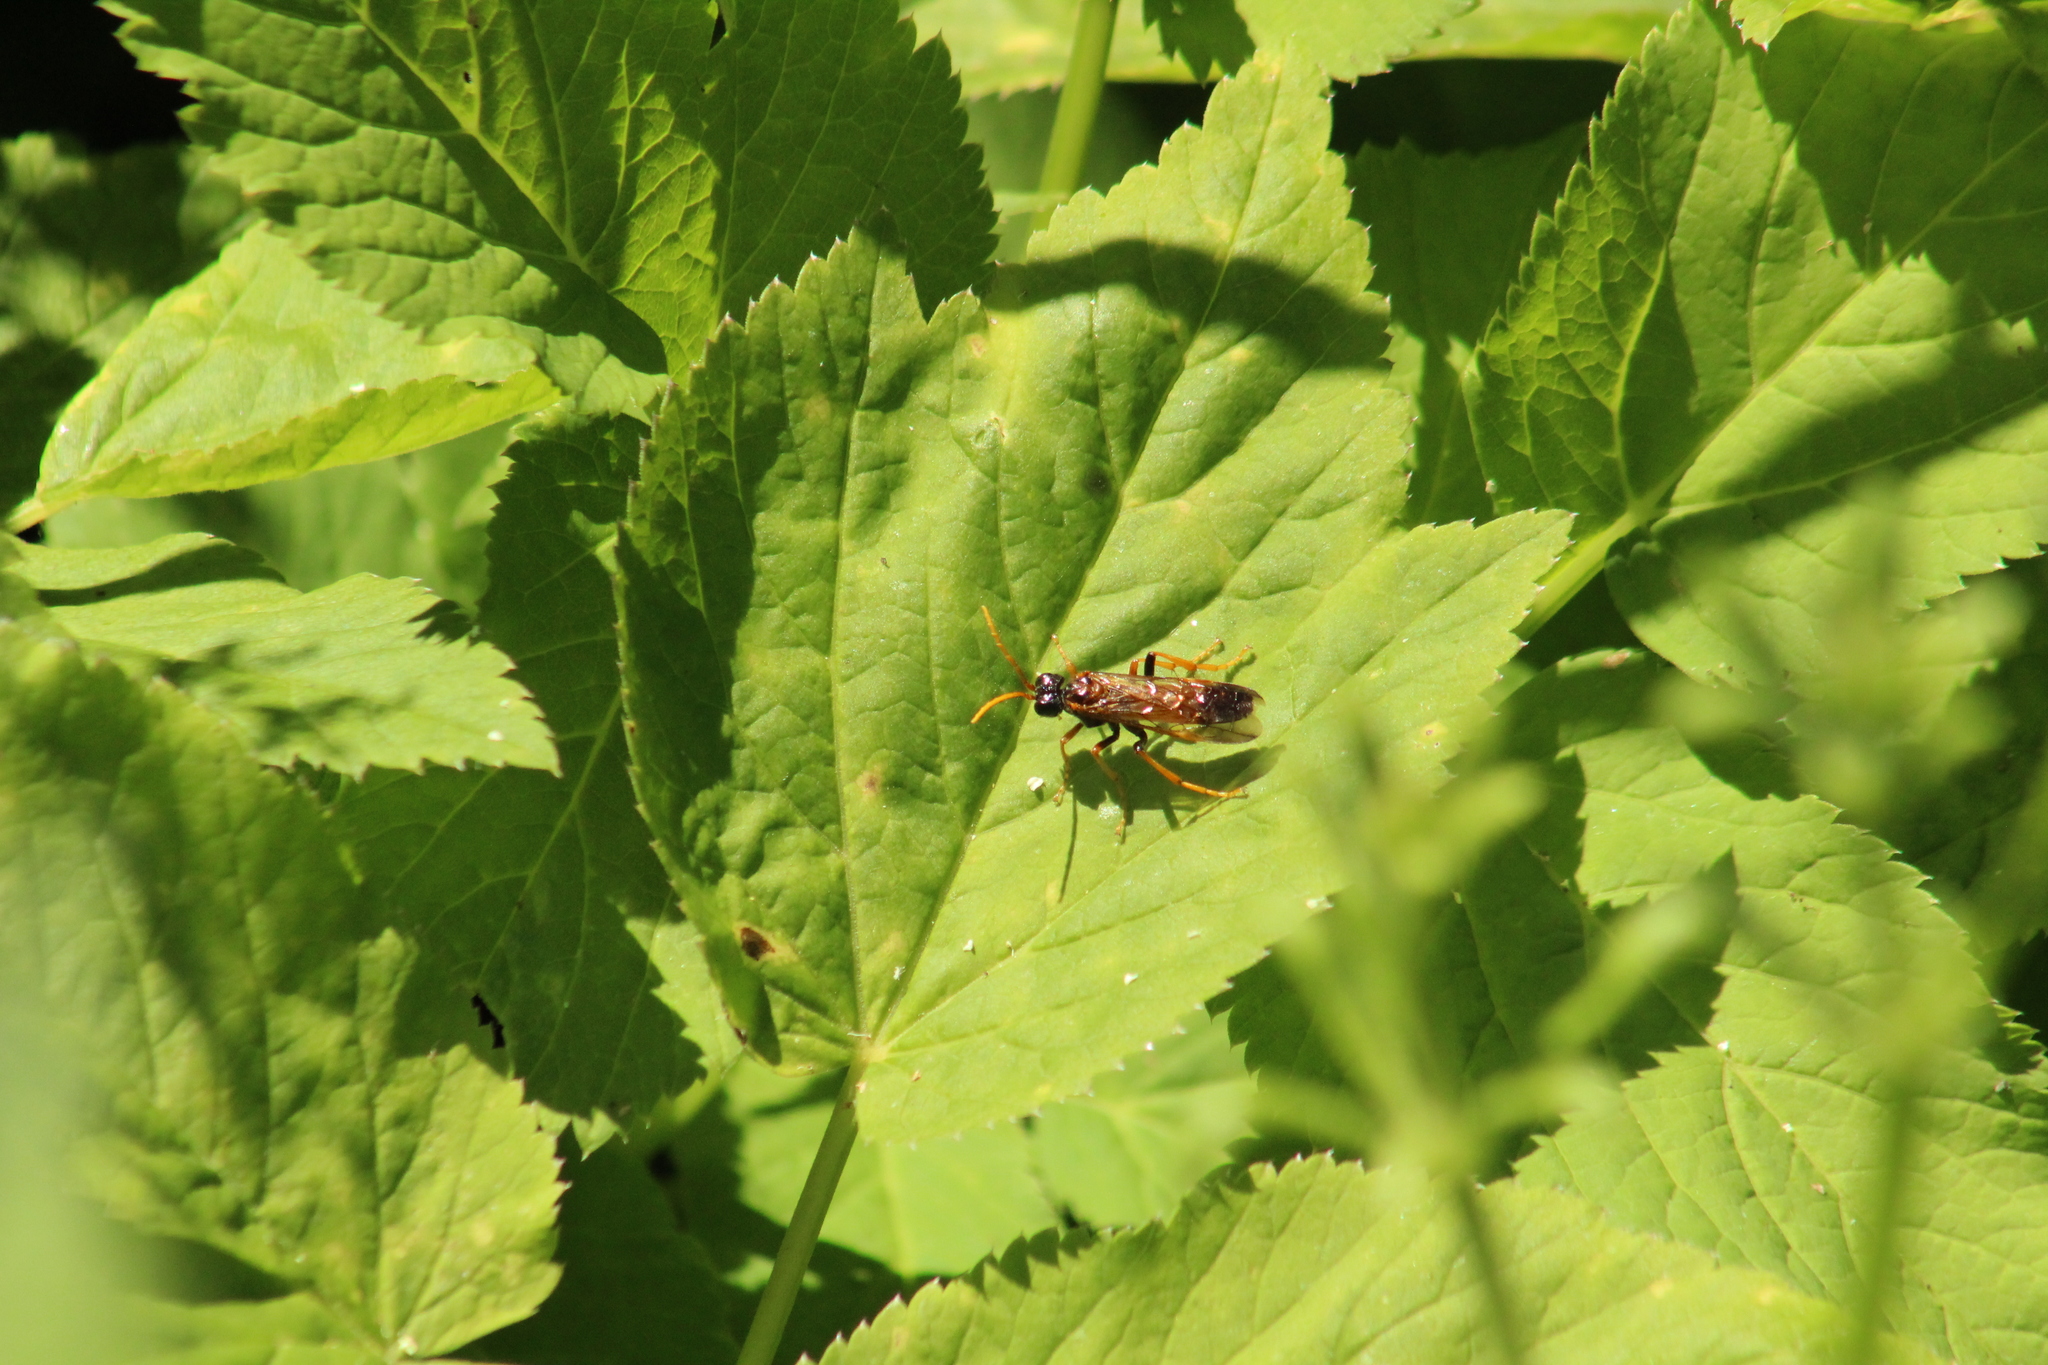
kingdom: Animalia
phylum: Arthropoda
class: Insecta
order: Hymenoptera
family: Tenthredinidae
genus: Tenthredo
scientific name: Tenthredo campestris
